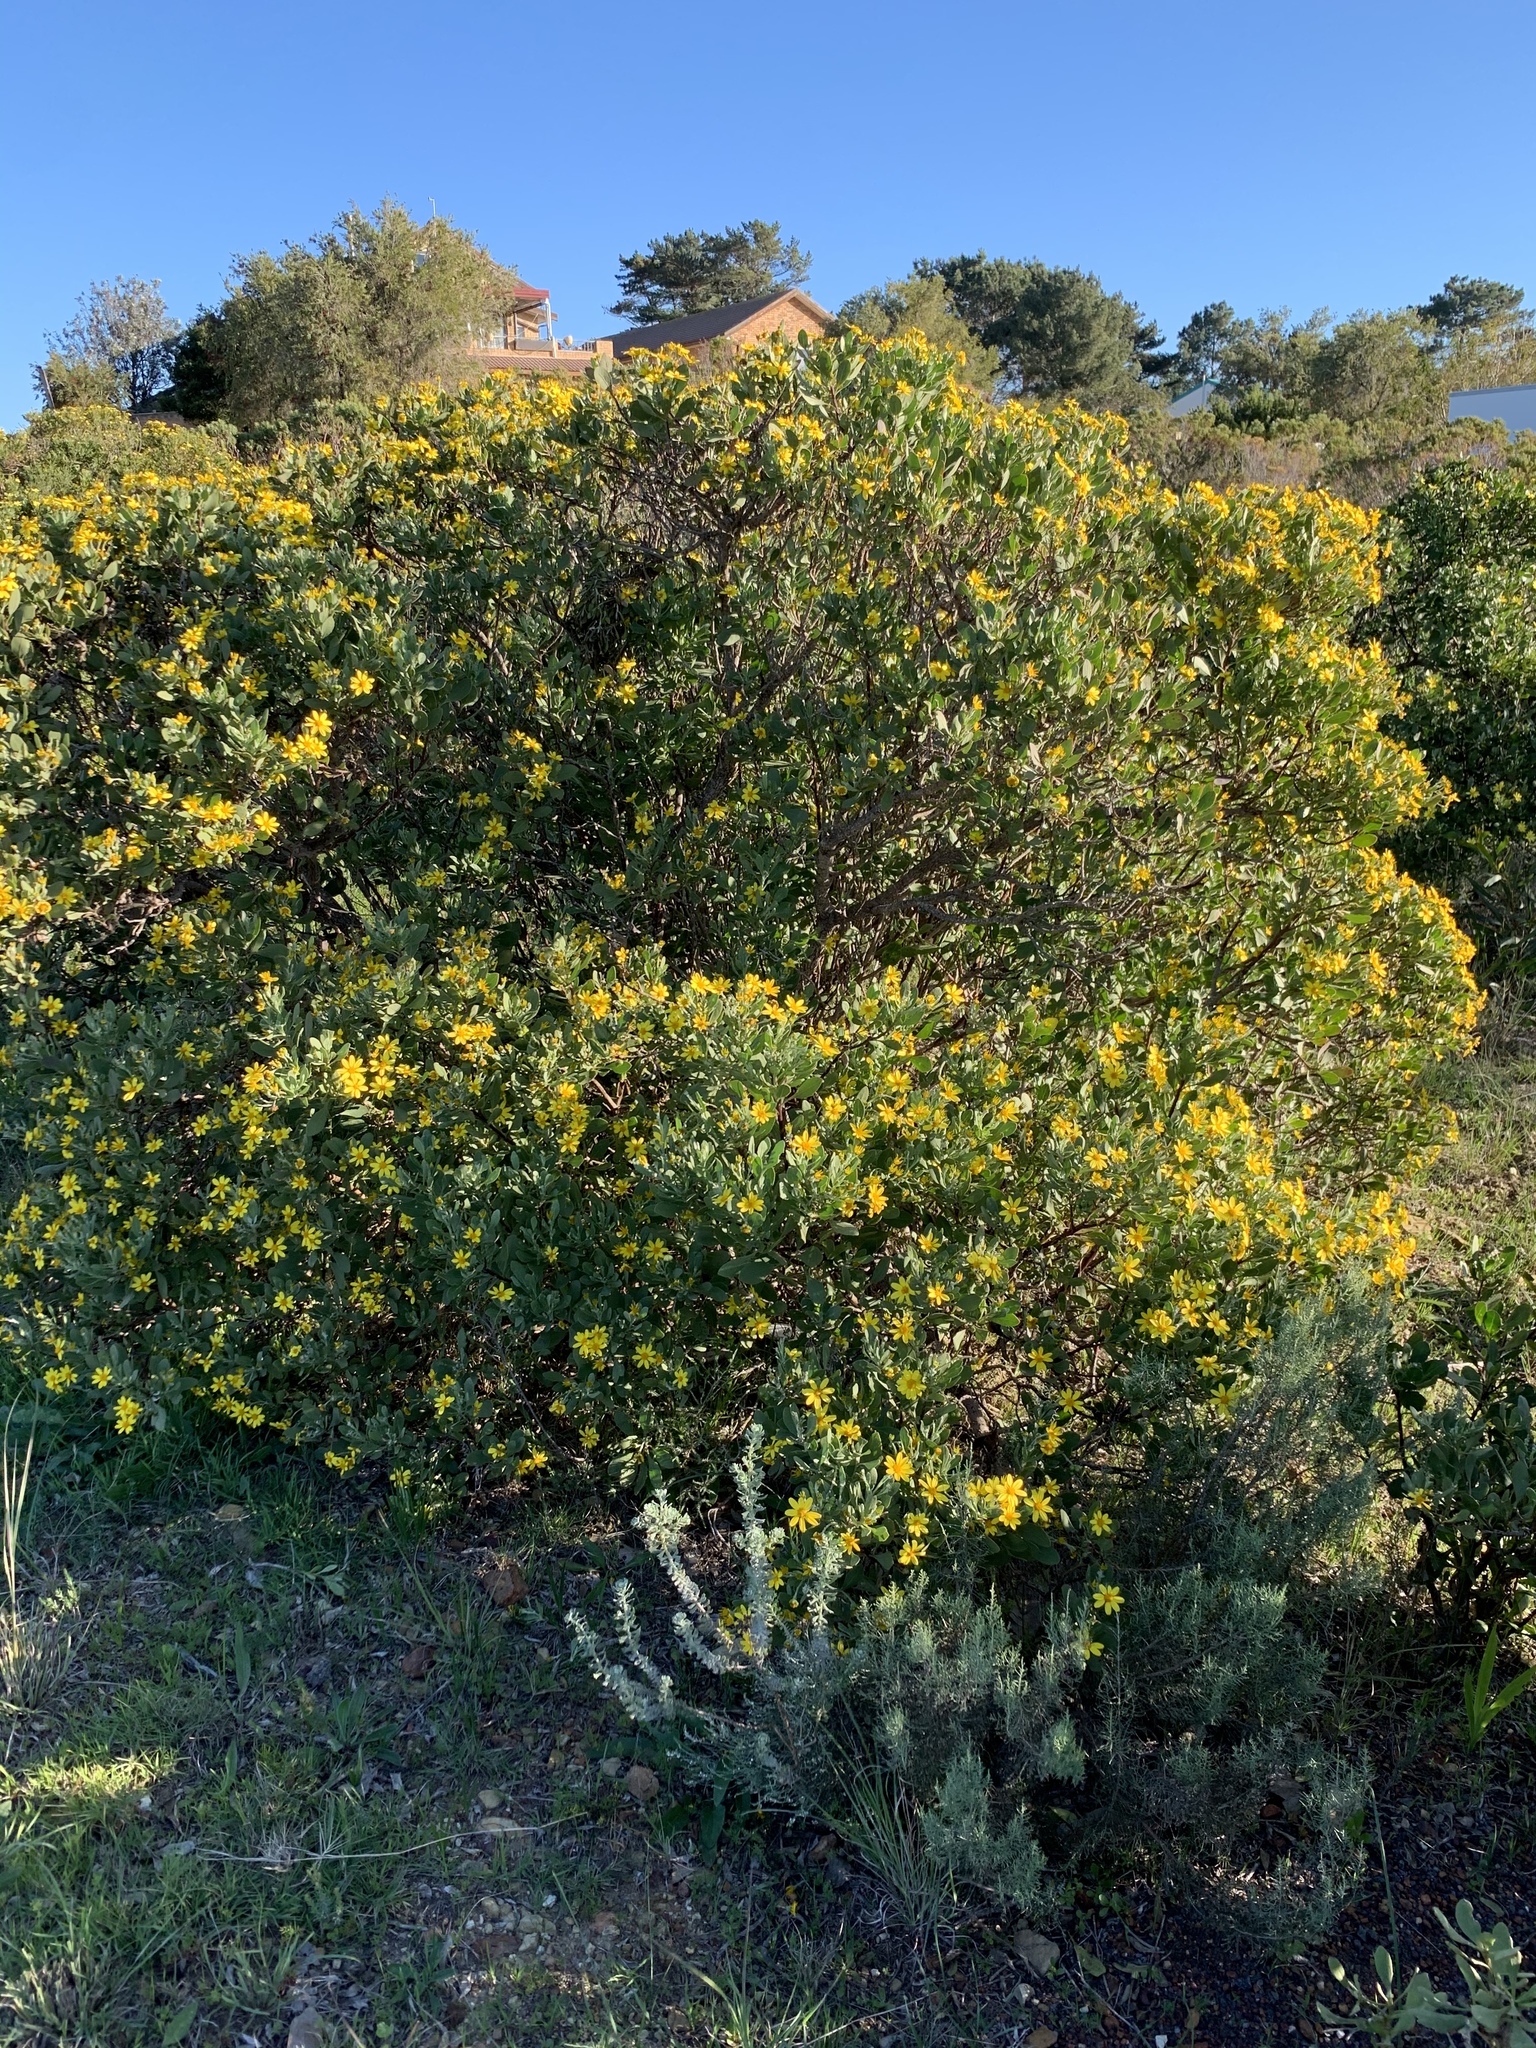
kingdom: Plantae
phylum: Tracheophyta
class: Magnoliopsida
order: Asterales
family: Asteraceae
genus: Osteospermum
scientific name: Osteospermum moniliferum
